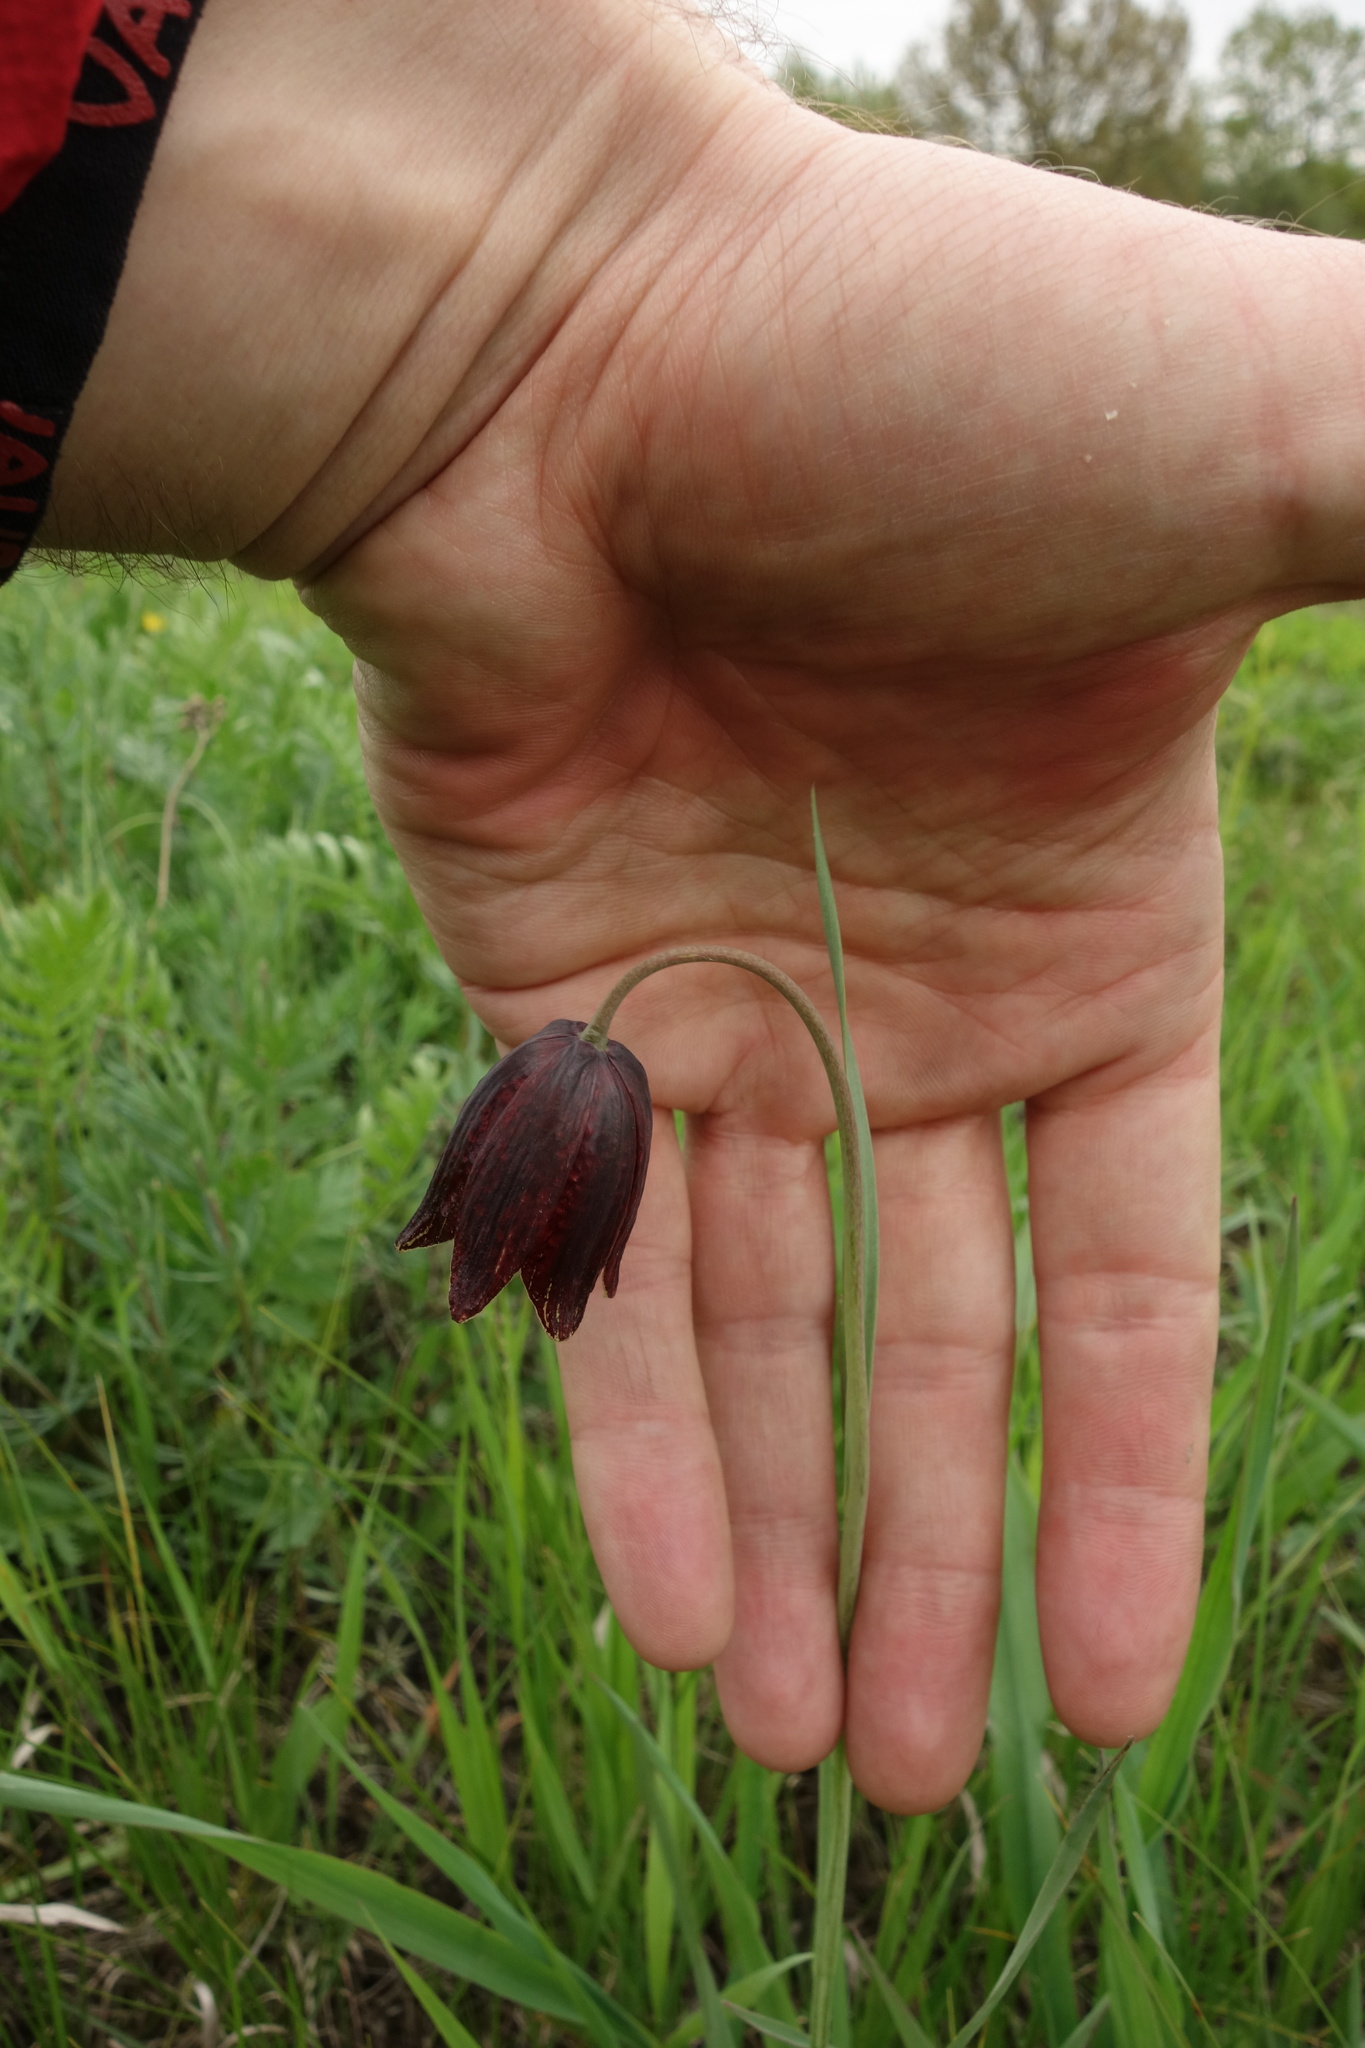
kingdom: Plantae
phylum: Tracheophyta
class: Liliopsida
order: Liliales
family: Liliaceae
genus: Fritillaria
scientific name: Fritillaria meleagroides
